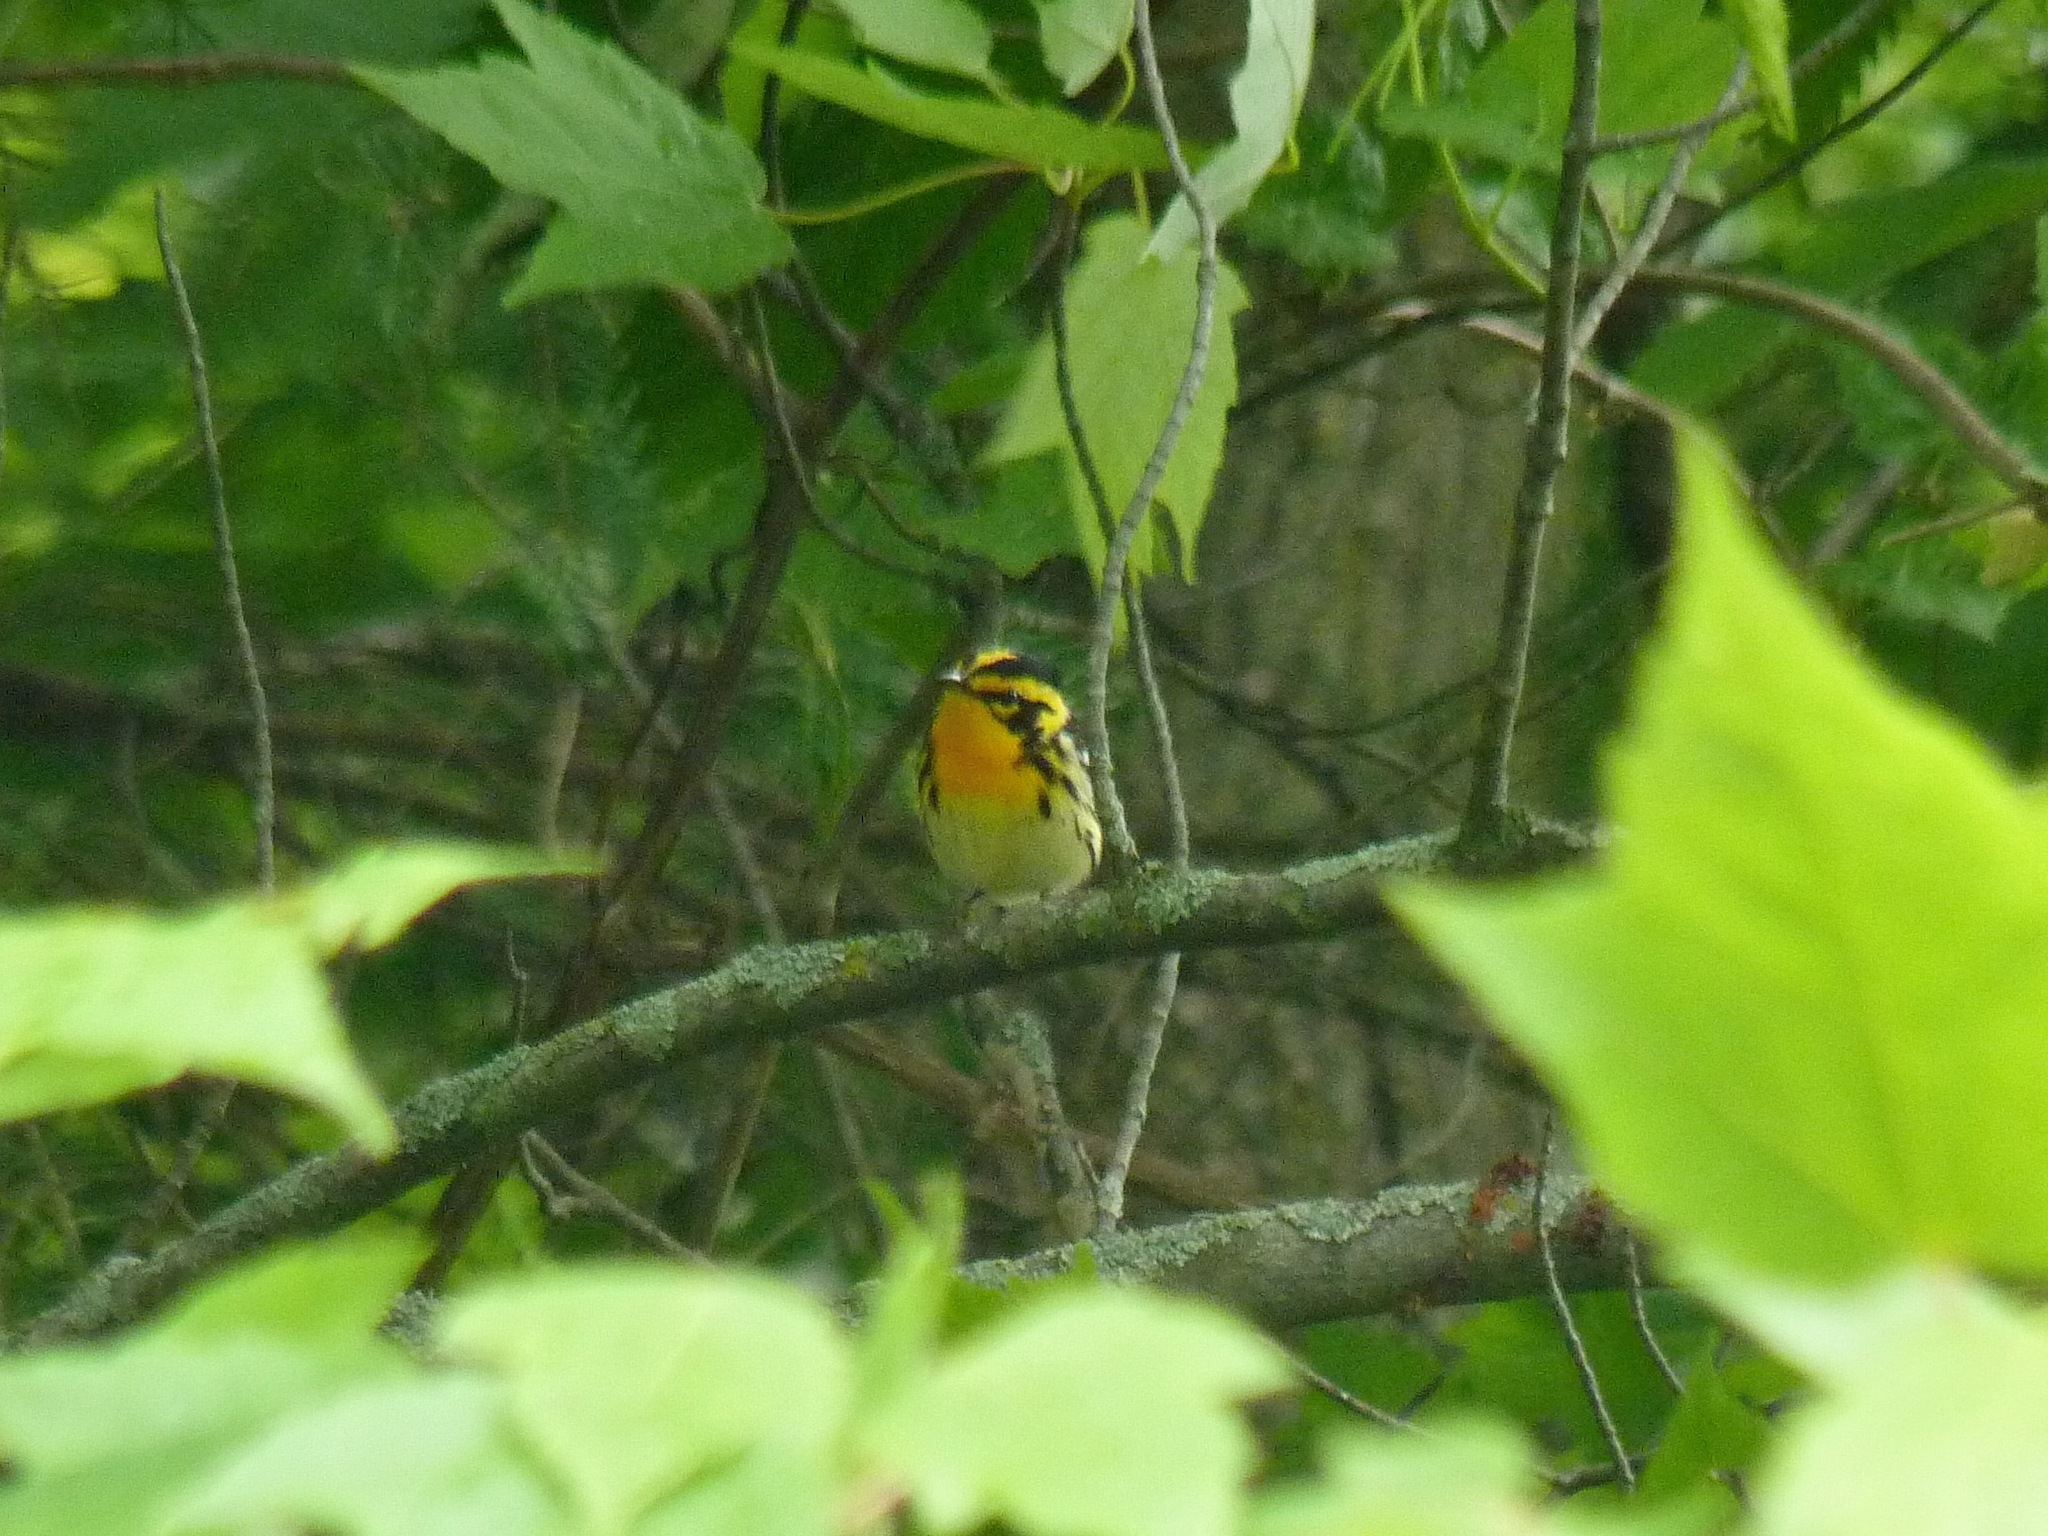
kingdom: Animalia
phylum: Chordata
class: Aves
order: Passeriformes
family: Parulidae
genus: Setophaga
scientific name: Setophaga fusca
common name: Blackburnian warbler
